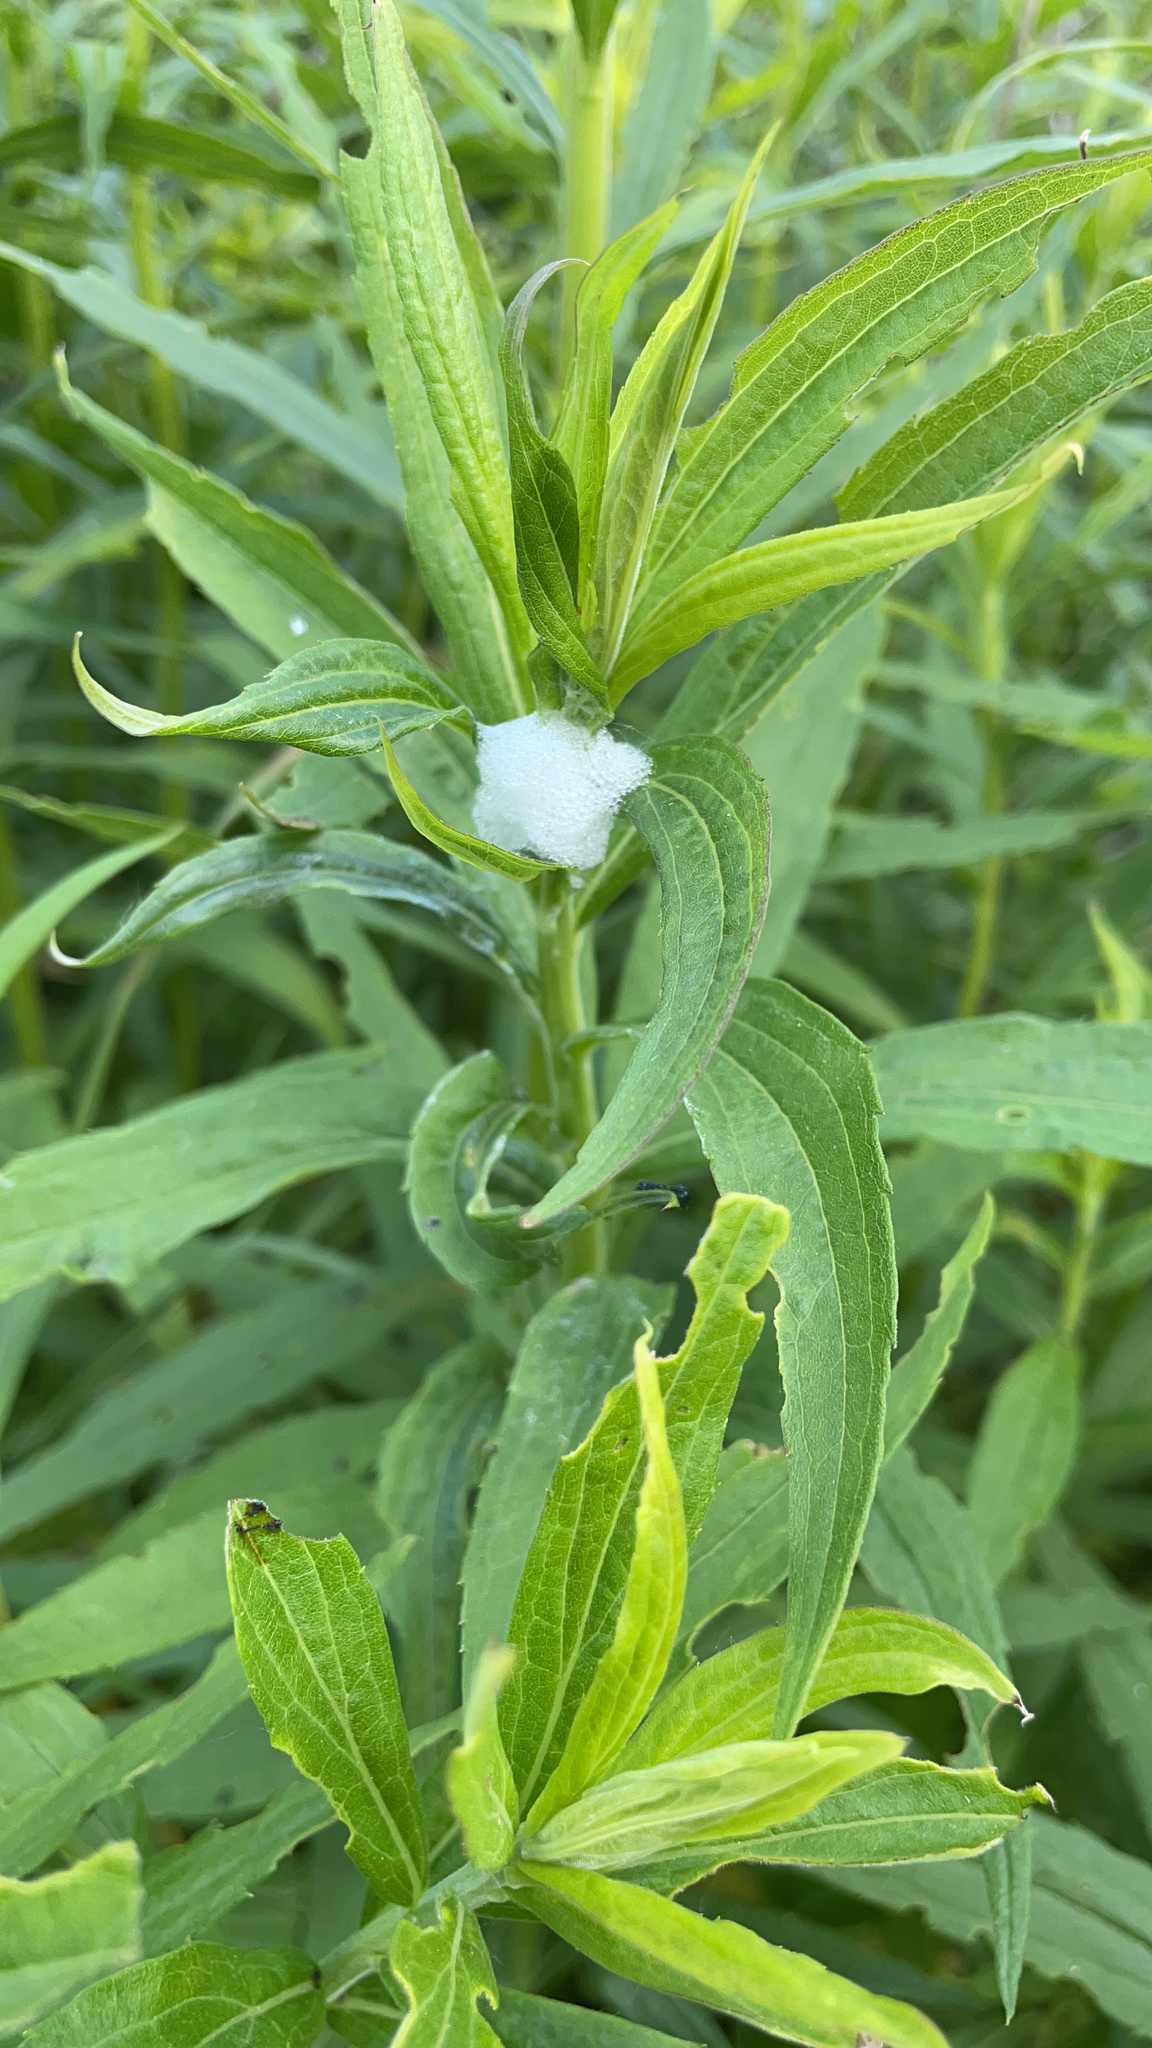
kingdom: Animalia
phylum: Arthropoda
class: Insecta
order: Hemiptera
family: Aphrophoridae
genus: Philaenus
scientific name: Philaenus spumarius
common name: Meadow spittlebug
